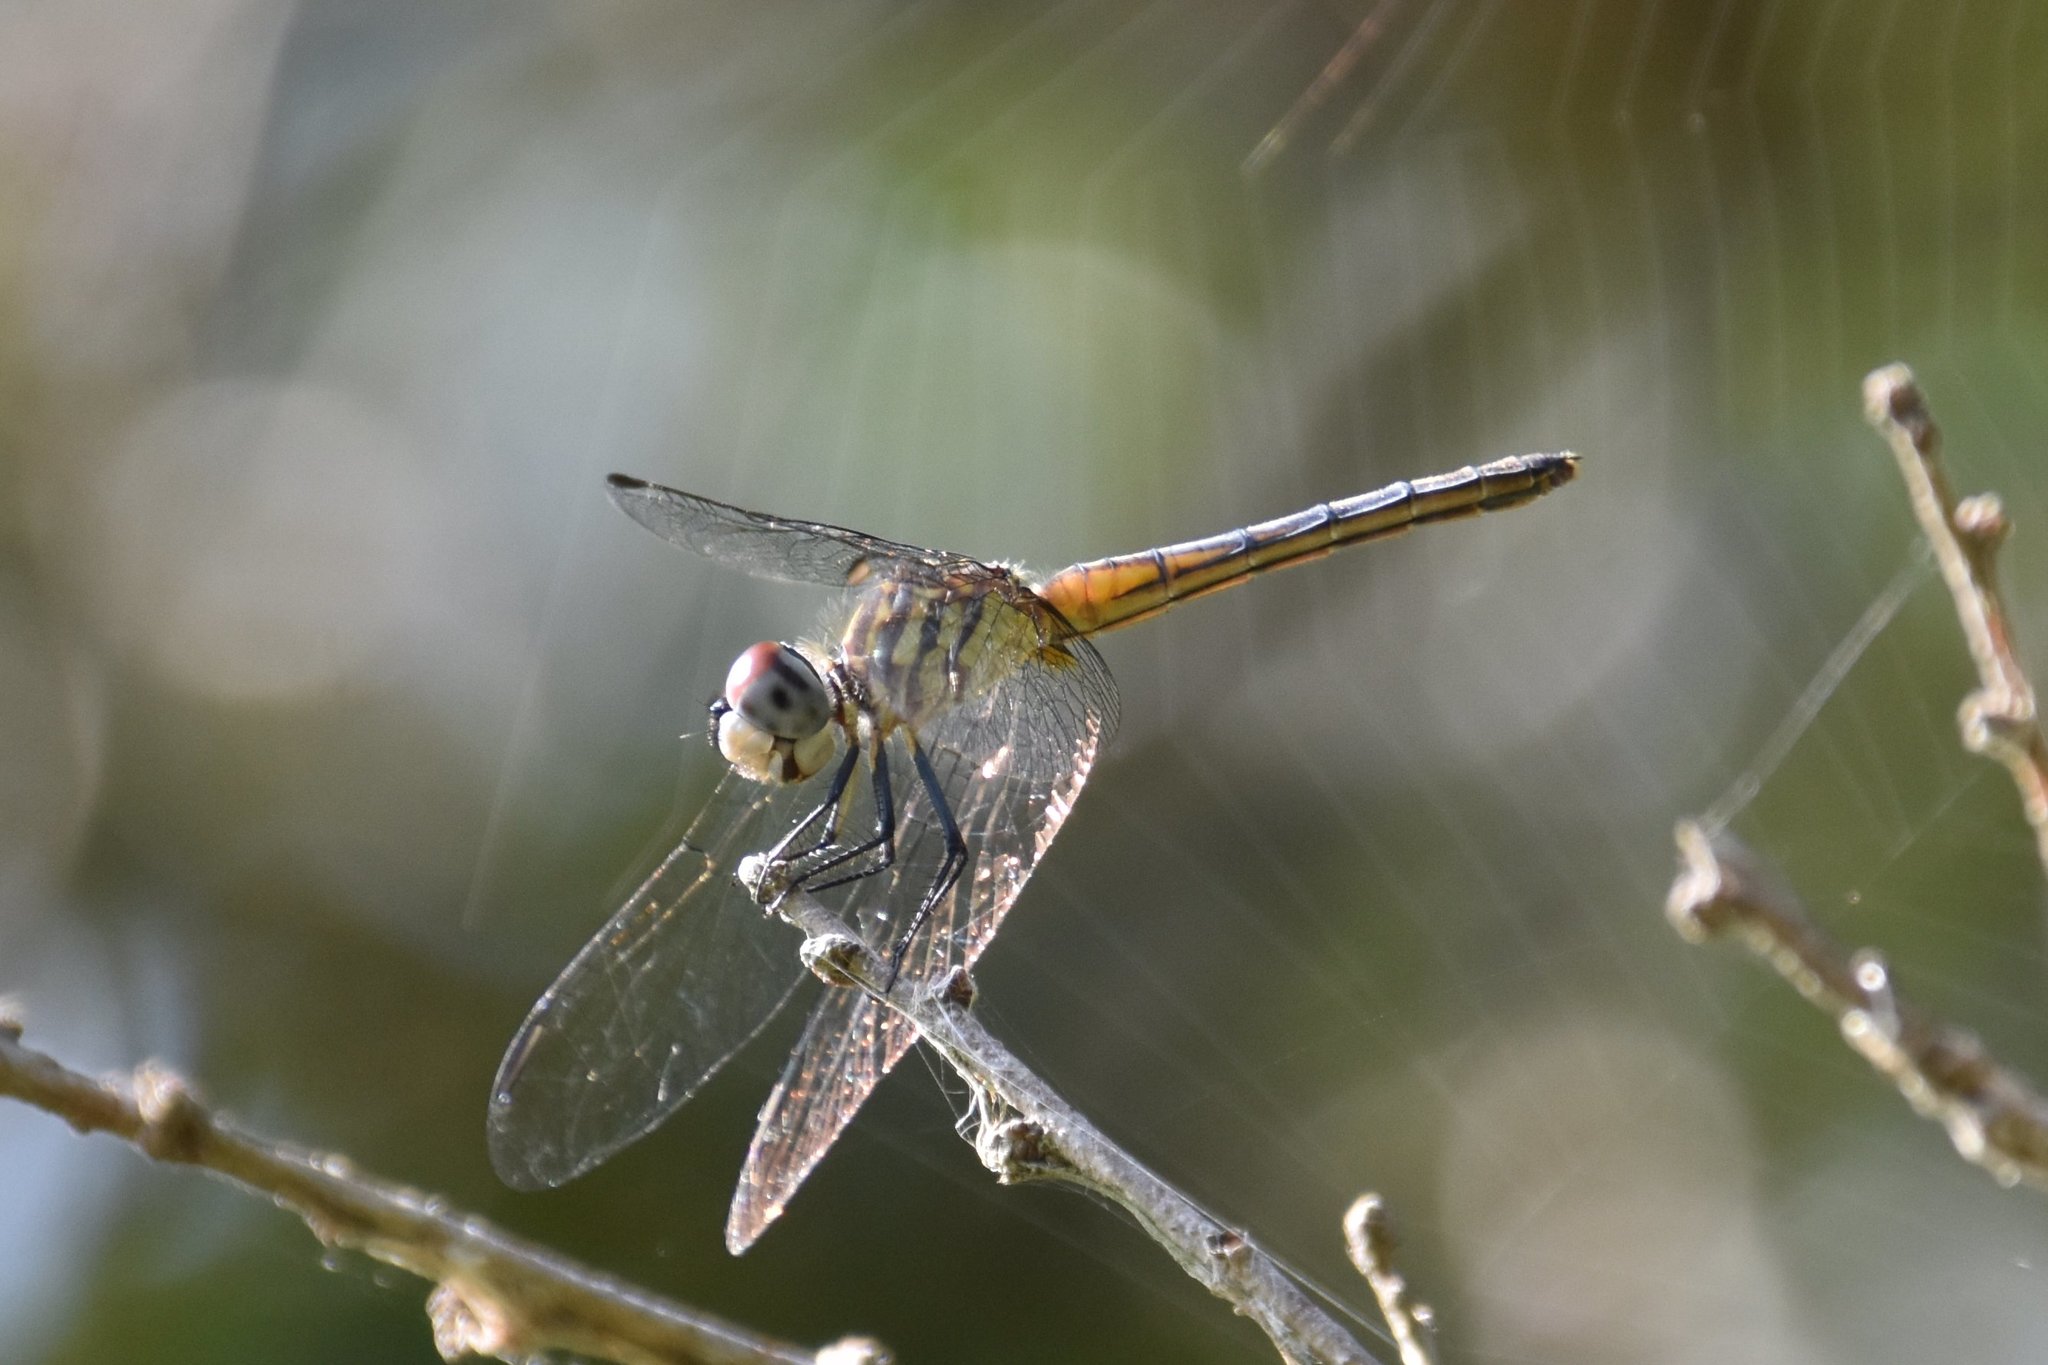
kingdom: Animalia
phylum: Arthropoda
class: Insecta
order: Odonata
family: Libellulidae
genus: Pachydiplax
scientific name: Pachydiplax longipennis
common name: Blue dasher
